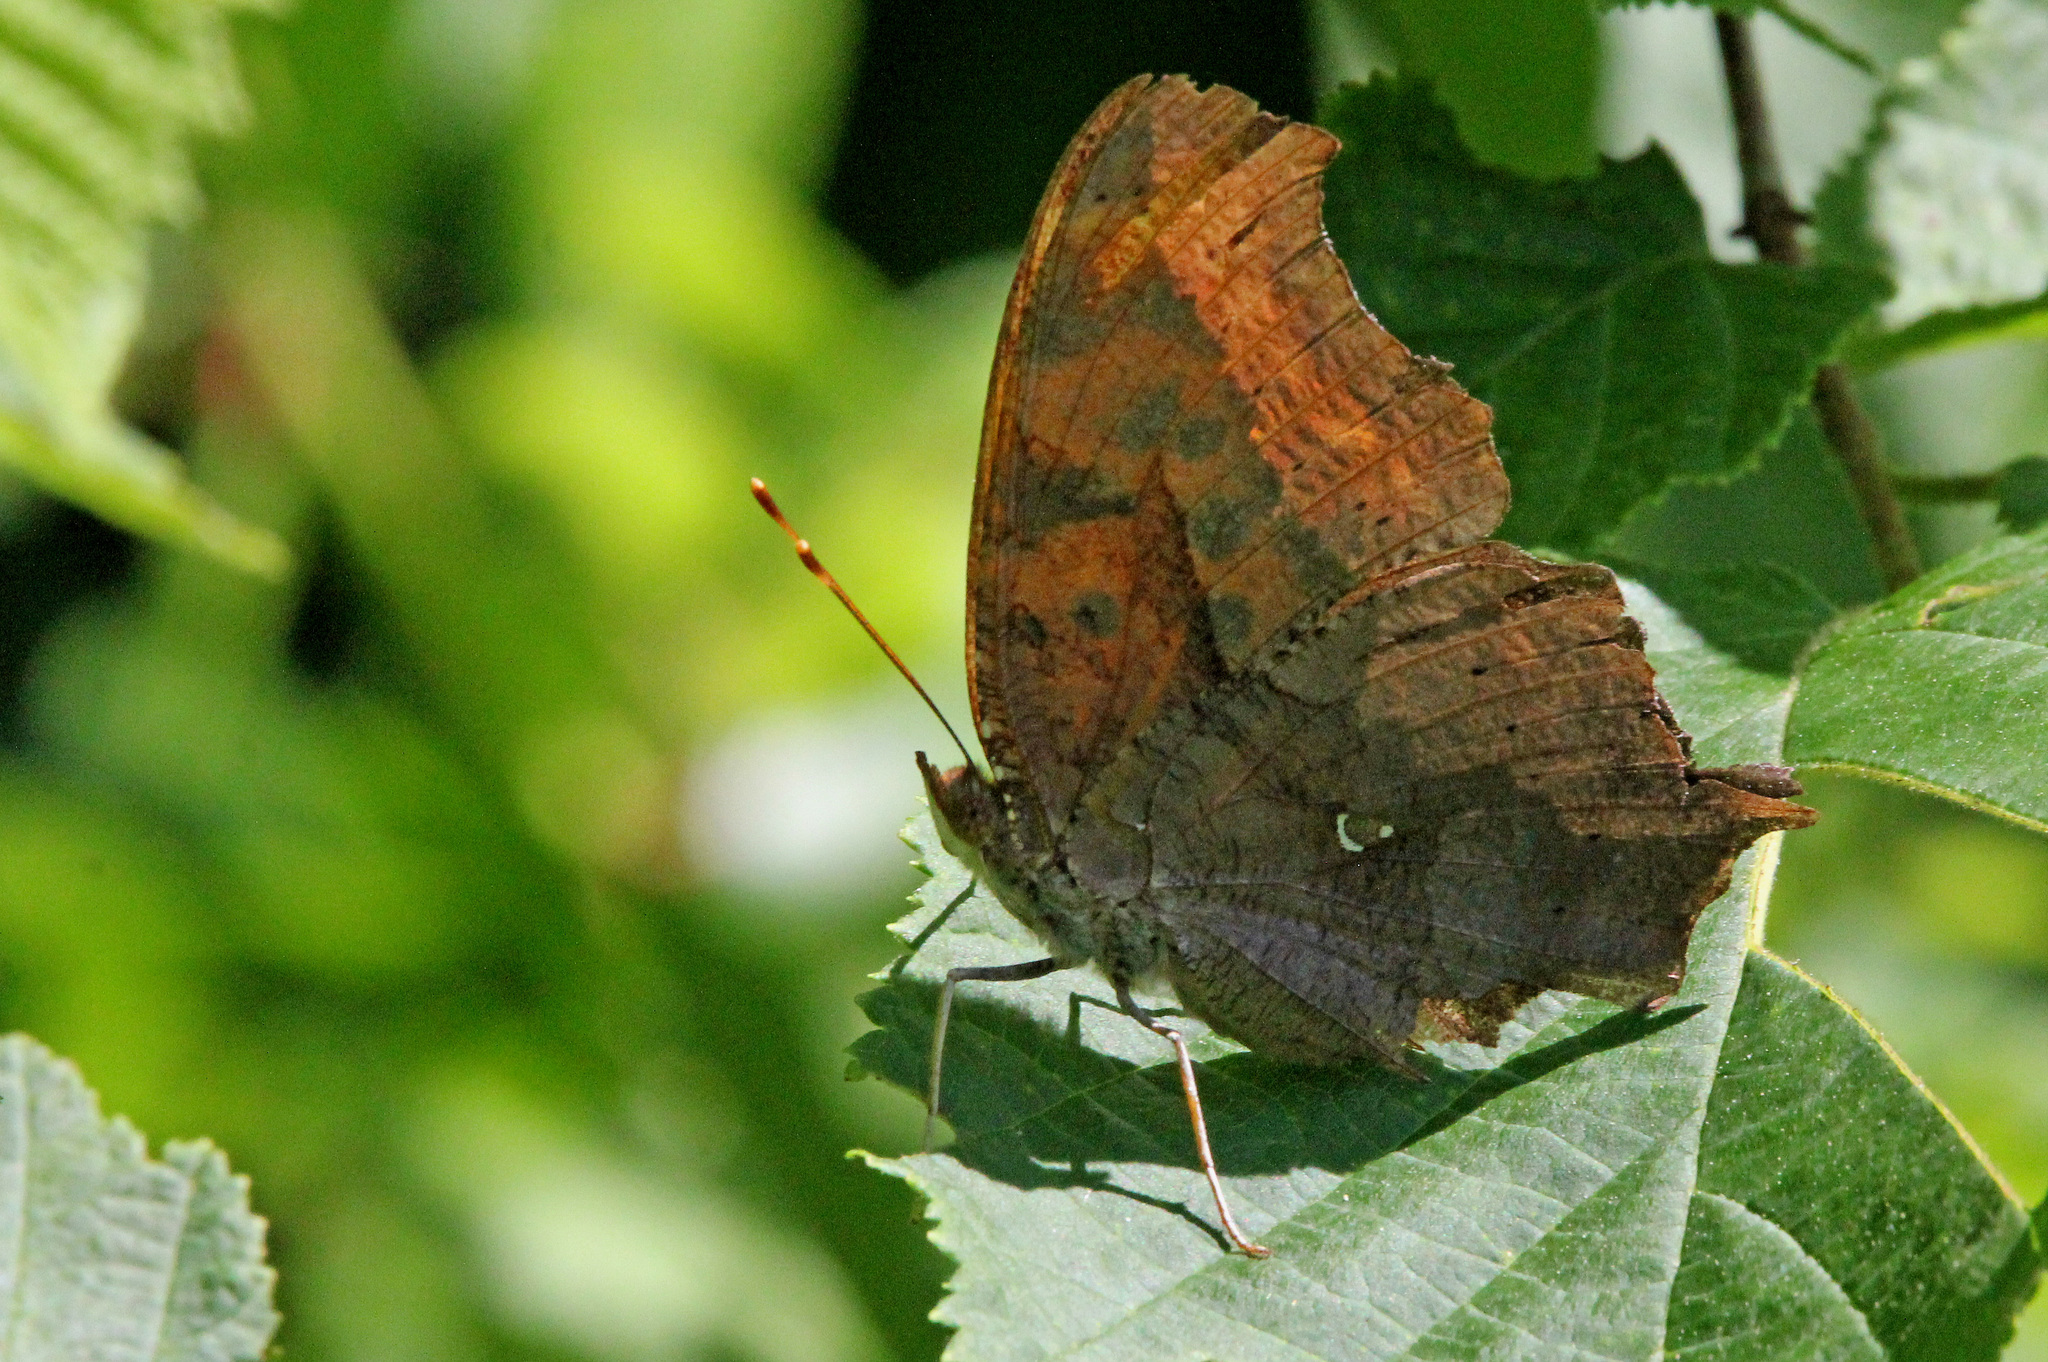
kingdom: Animalia
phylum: Arthropoda
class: Insecta
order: Lepidoptera
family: Nymphalidae
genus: Polygonia
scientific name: Polygonia interrogationis
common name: Question mark
